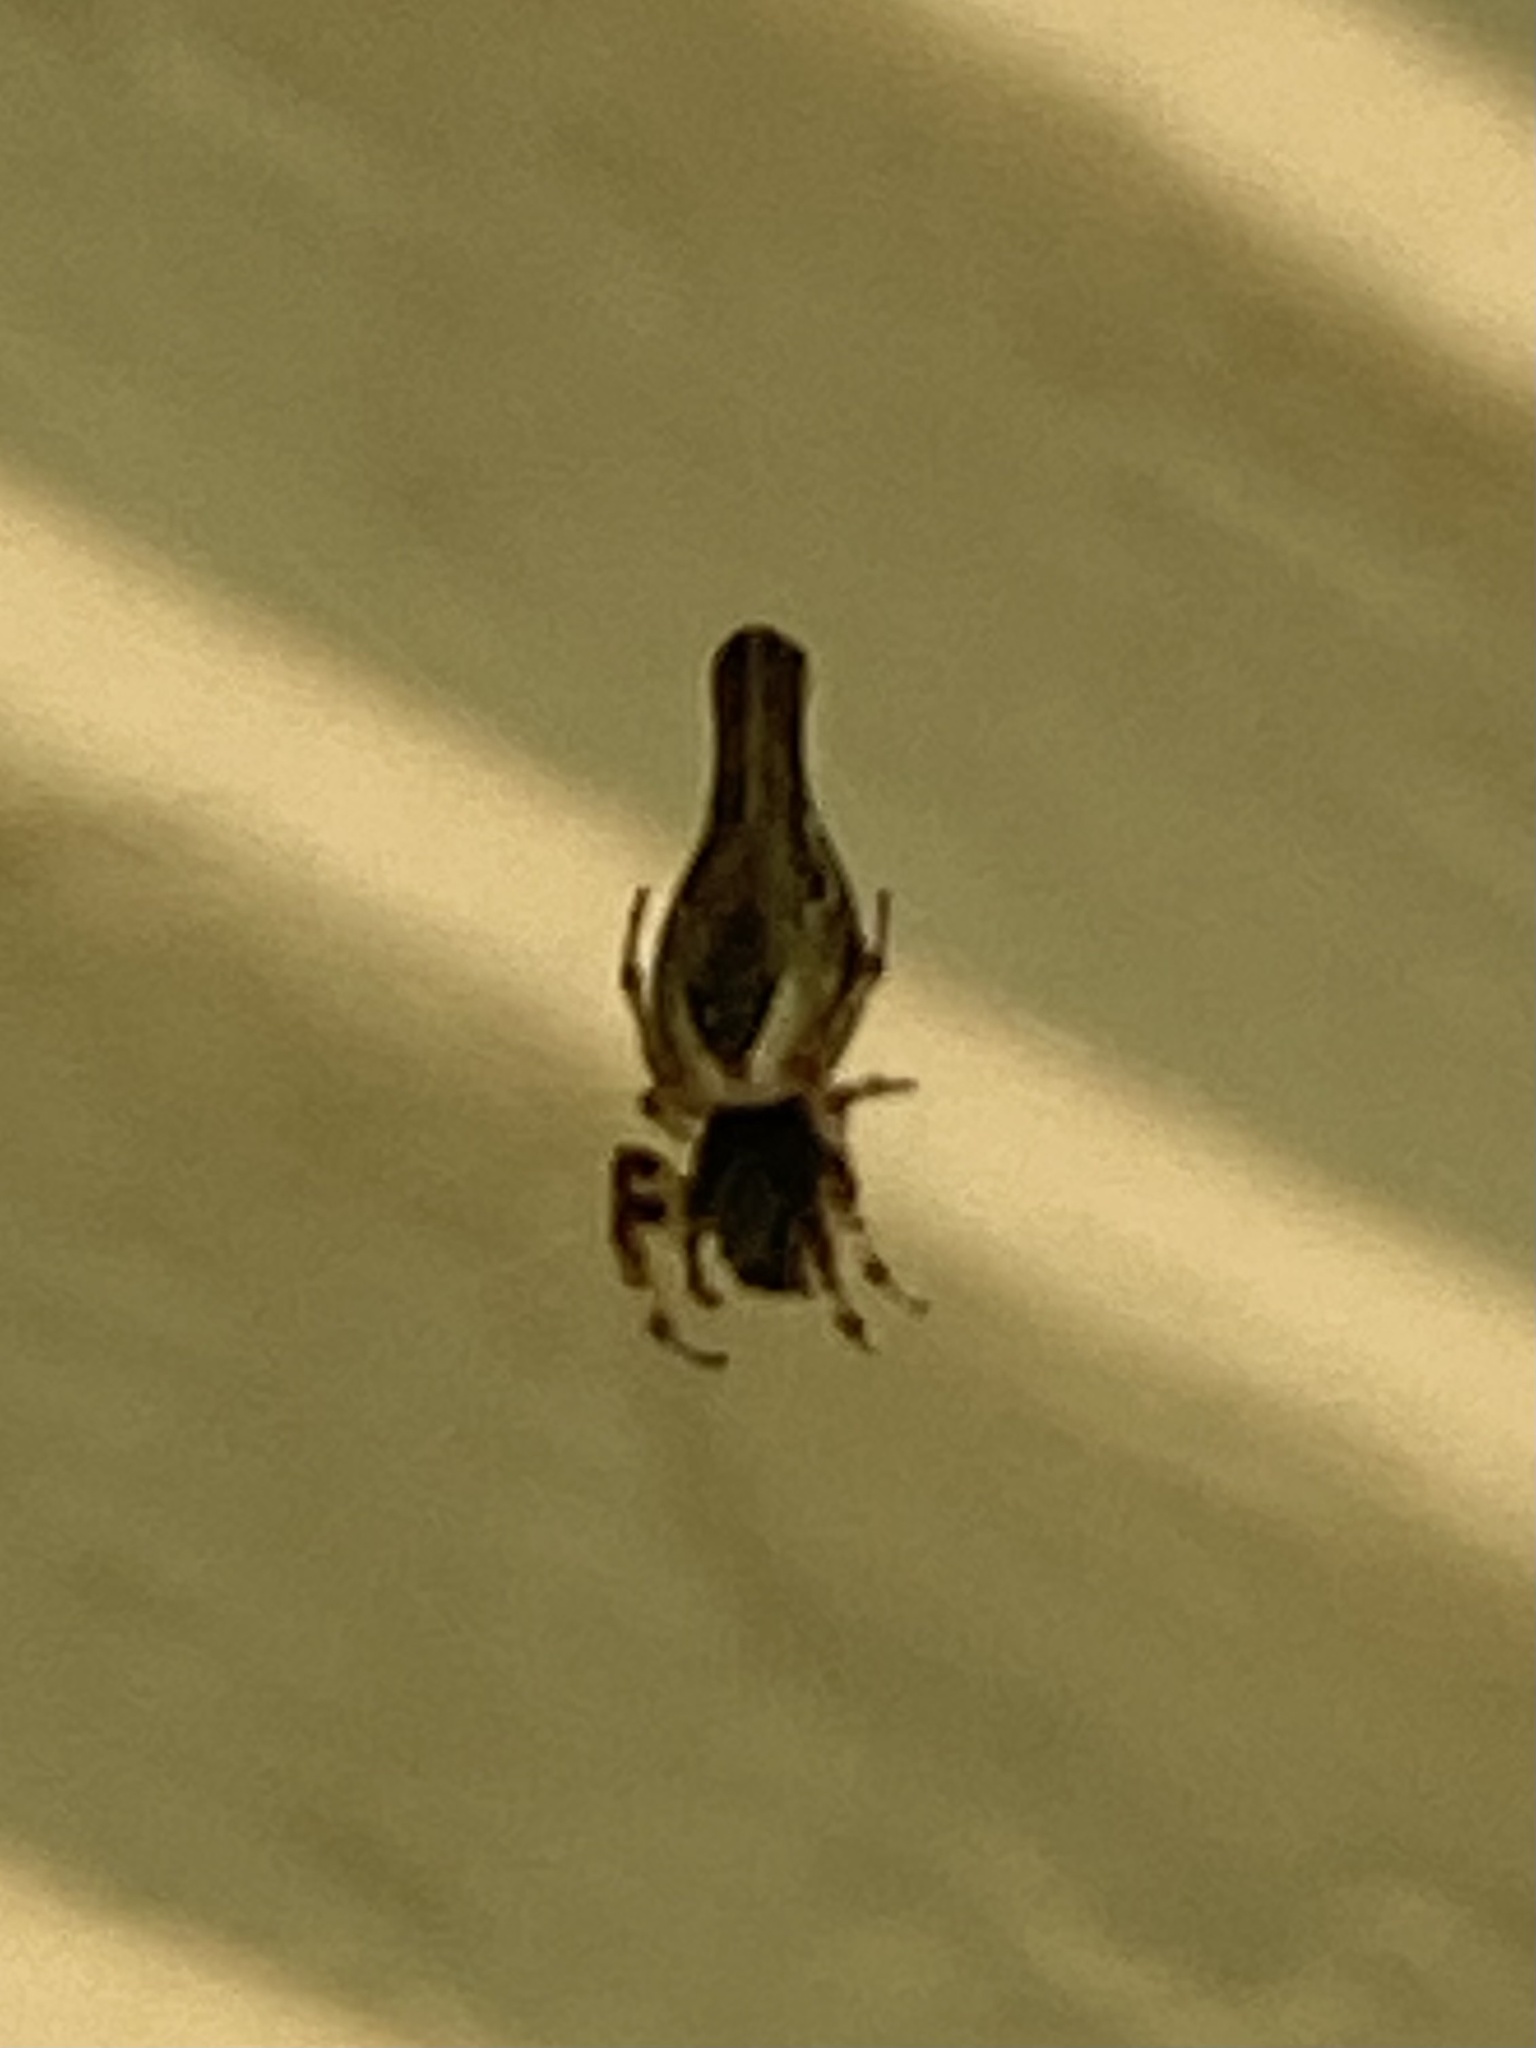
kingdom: Animalia
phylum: Arthropoda
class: Arachnida
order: Araneae
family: Araneidae
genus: Cyclosa
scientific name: Cyclosa conica
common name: Conical trashline orbweaver
